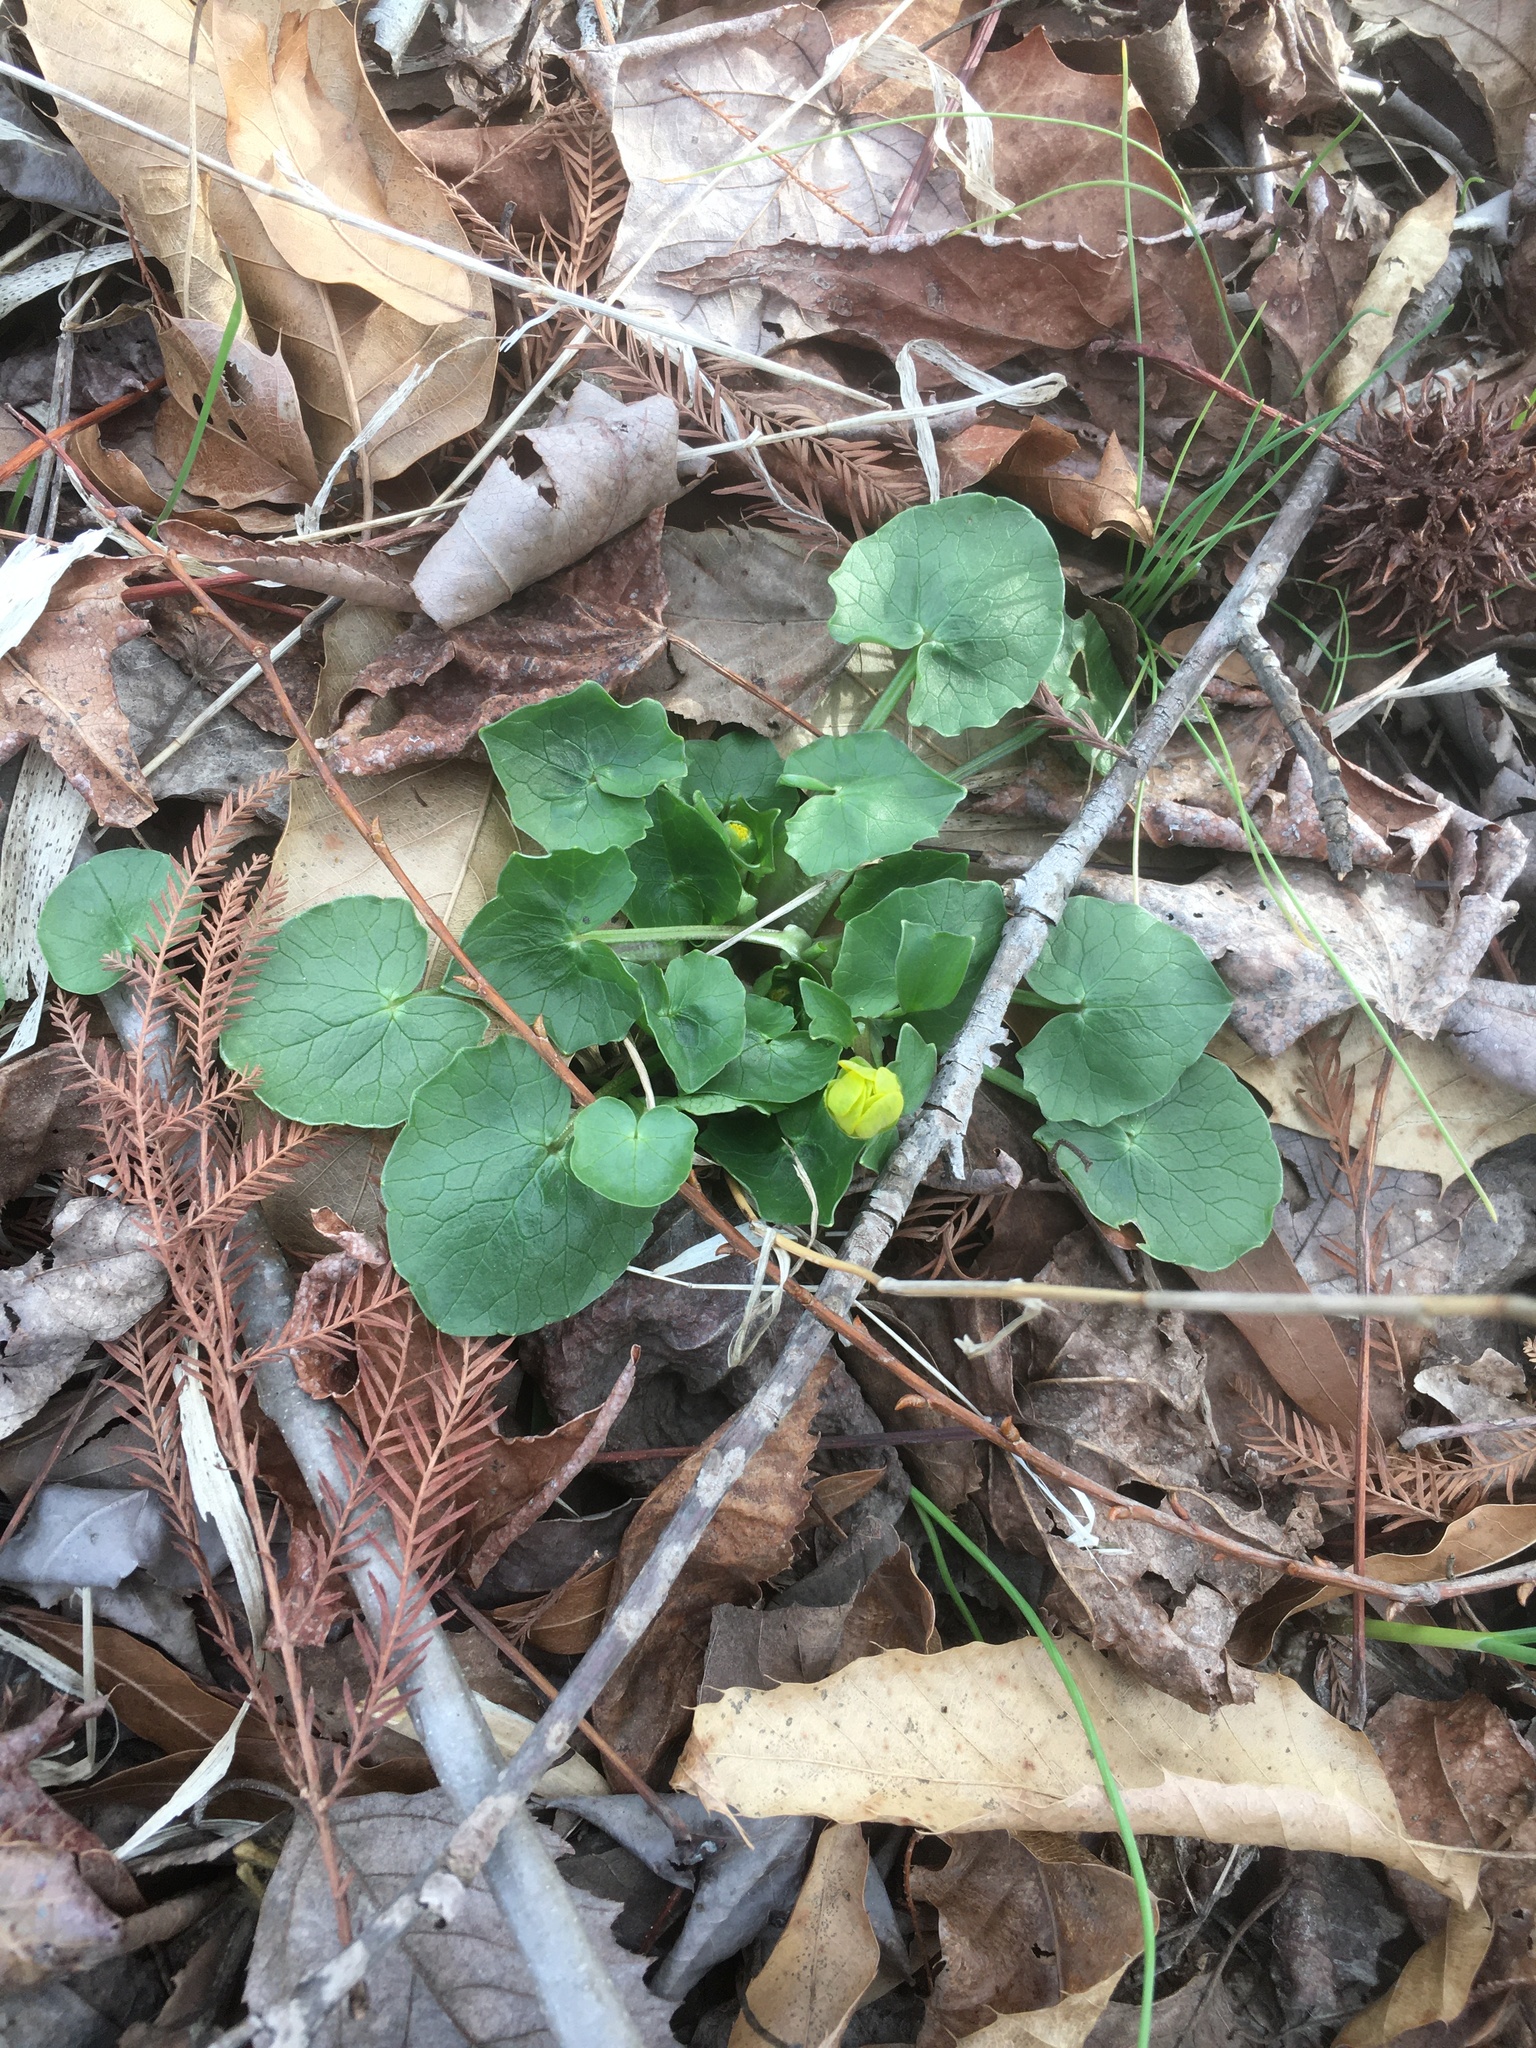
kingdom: Plantae
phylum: Tracheophyta
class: Magnoliopsida
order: Ranunculales
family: Ranunculaceae
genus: Ficaria
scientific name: Ficaria verna
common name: Lesser celandine
